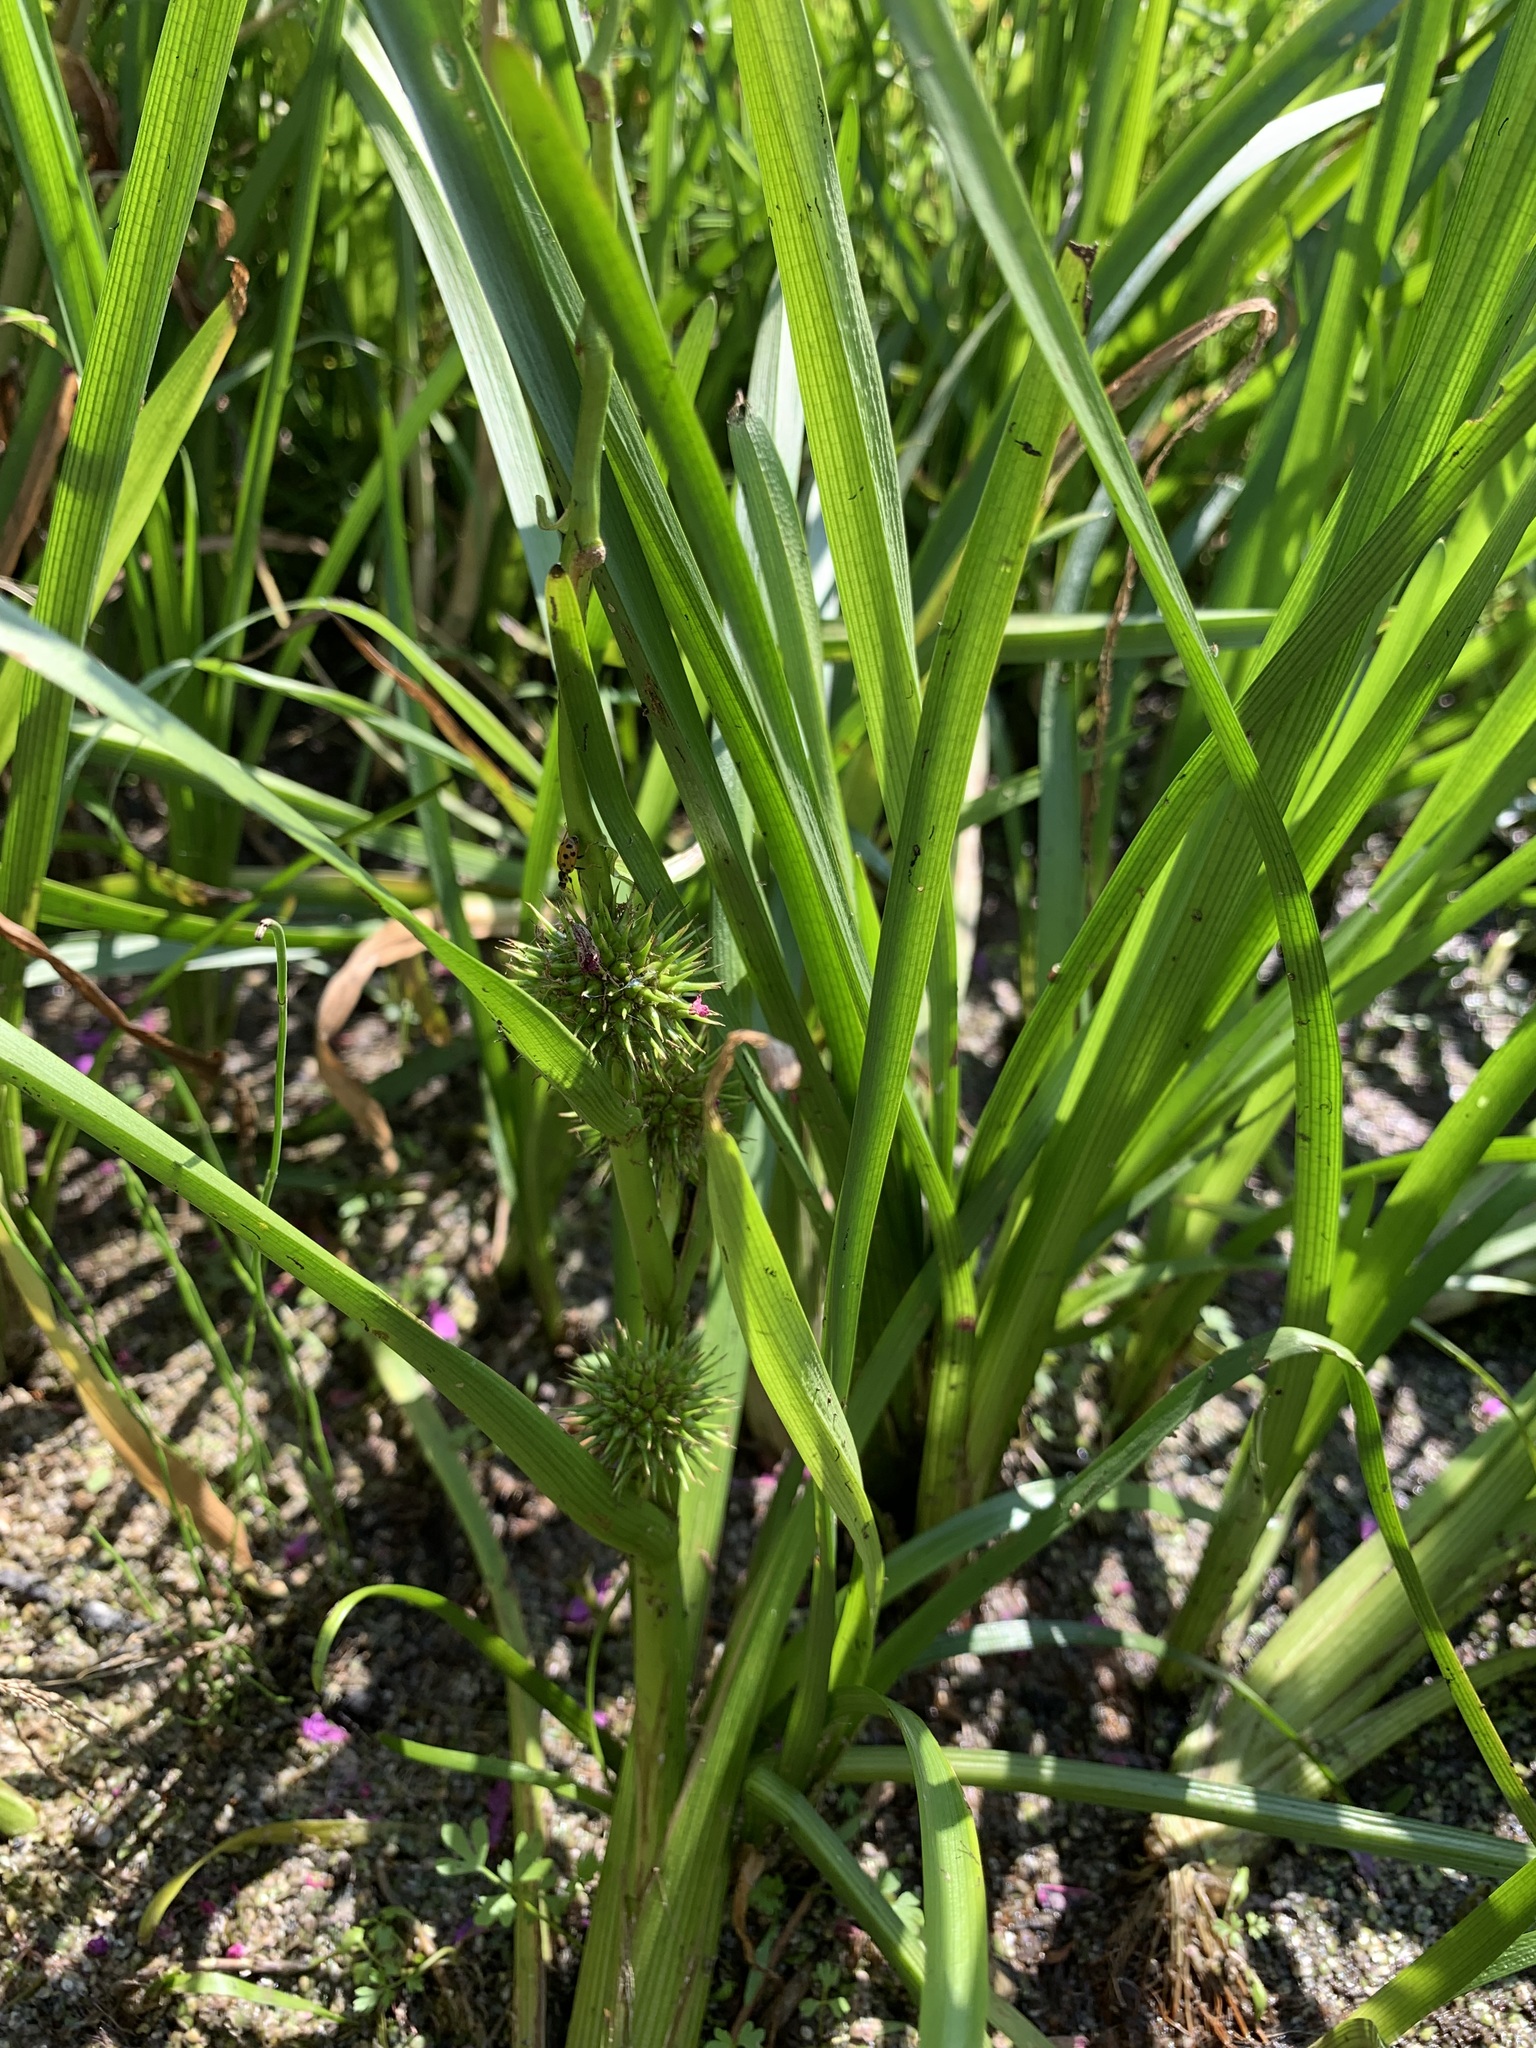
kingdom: Plantae
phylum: Tracheophyta
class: Liliopsida
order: Poales
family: Typhaceae
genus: Sparganium
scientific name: Sparganium emersum
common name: Unbranched bur-reed
